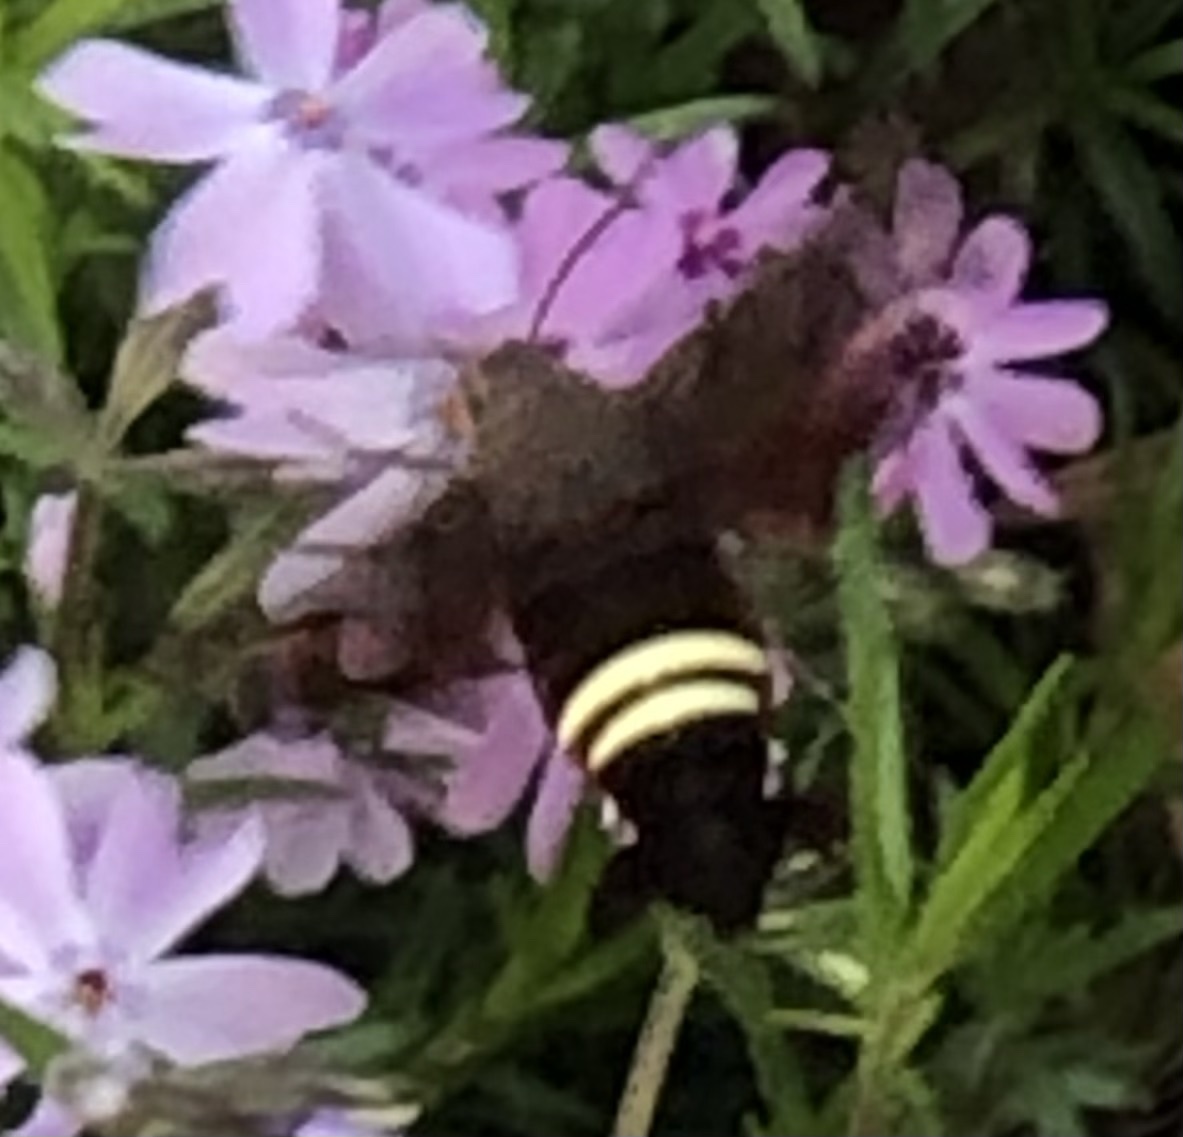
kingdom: Animalia
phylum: Arthropoda
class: Insecta
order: Lepidoptera
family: Sphingidae
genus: Amphion
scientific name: Amphion floridensis
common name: Nessus sphinx
